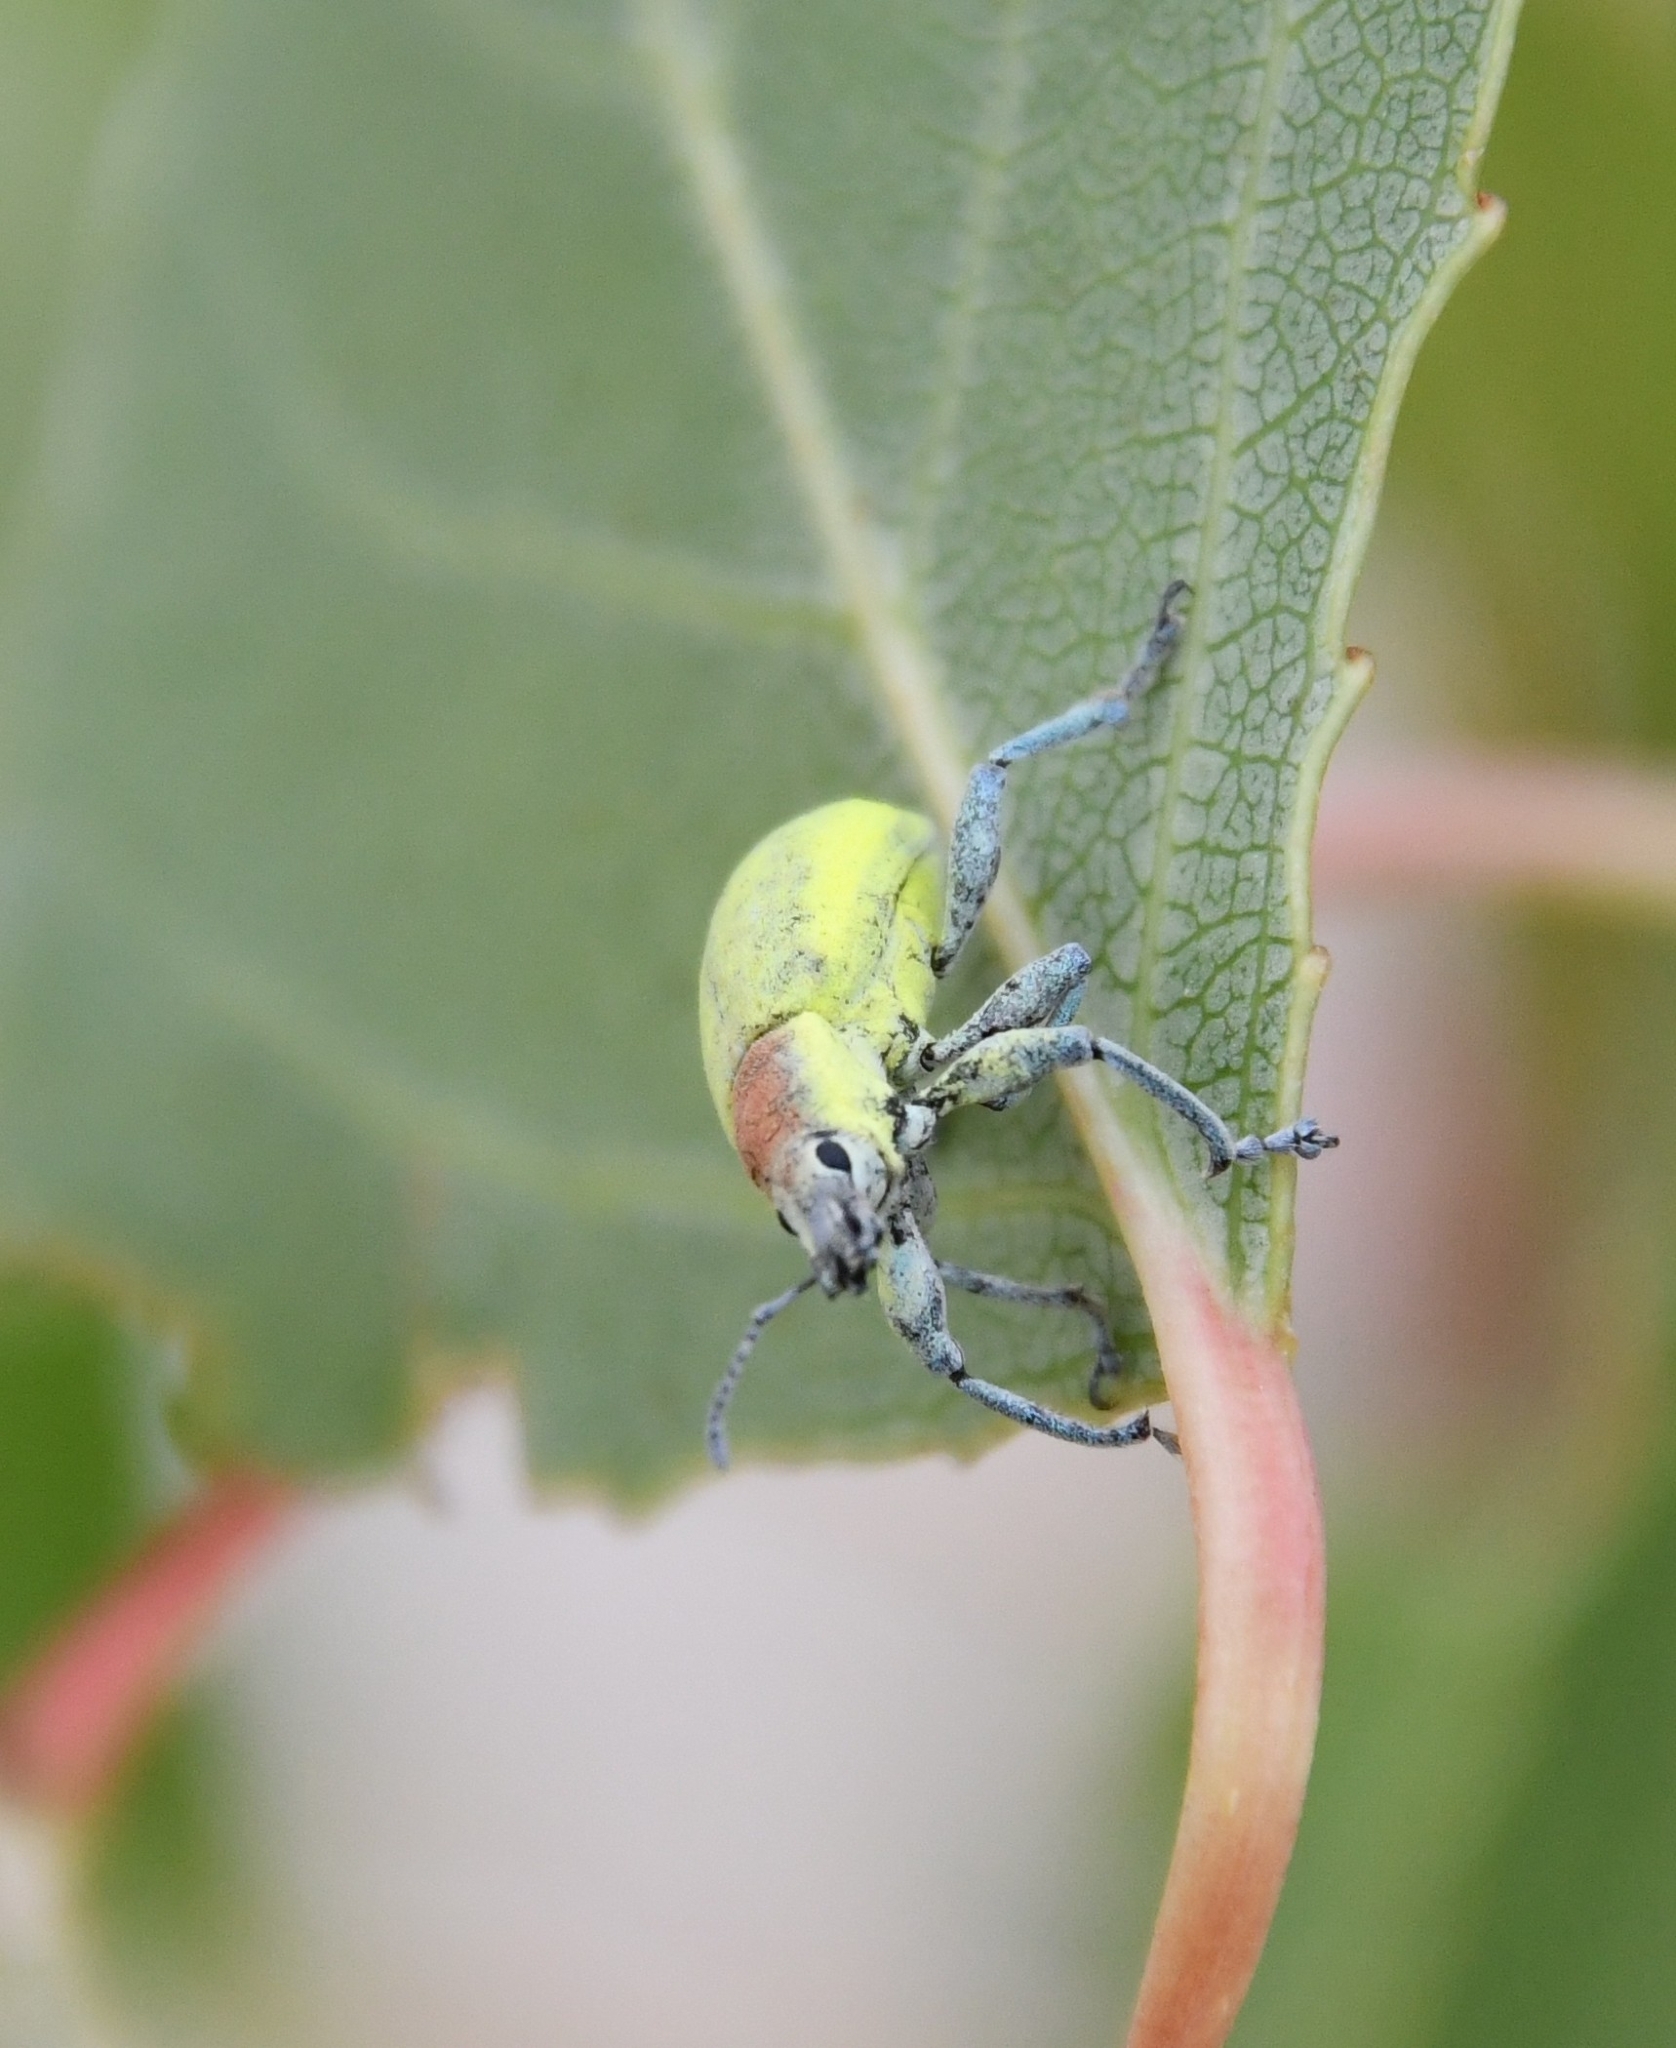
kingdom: Animalia
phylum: Arthropoda
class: Insecta
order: Coleoptera
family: Curculionidae
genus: Chlorophanus
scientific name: Chlorophanus micans
